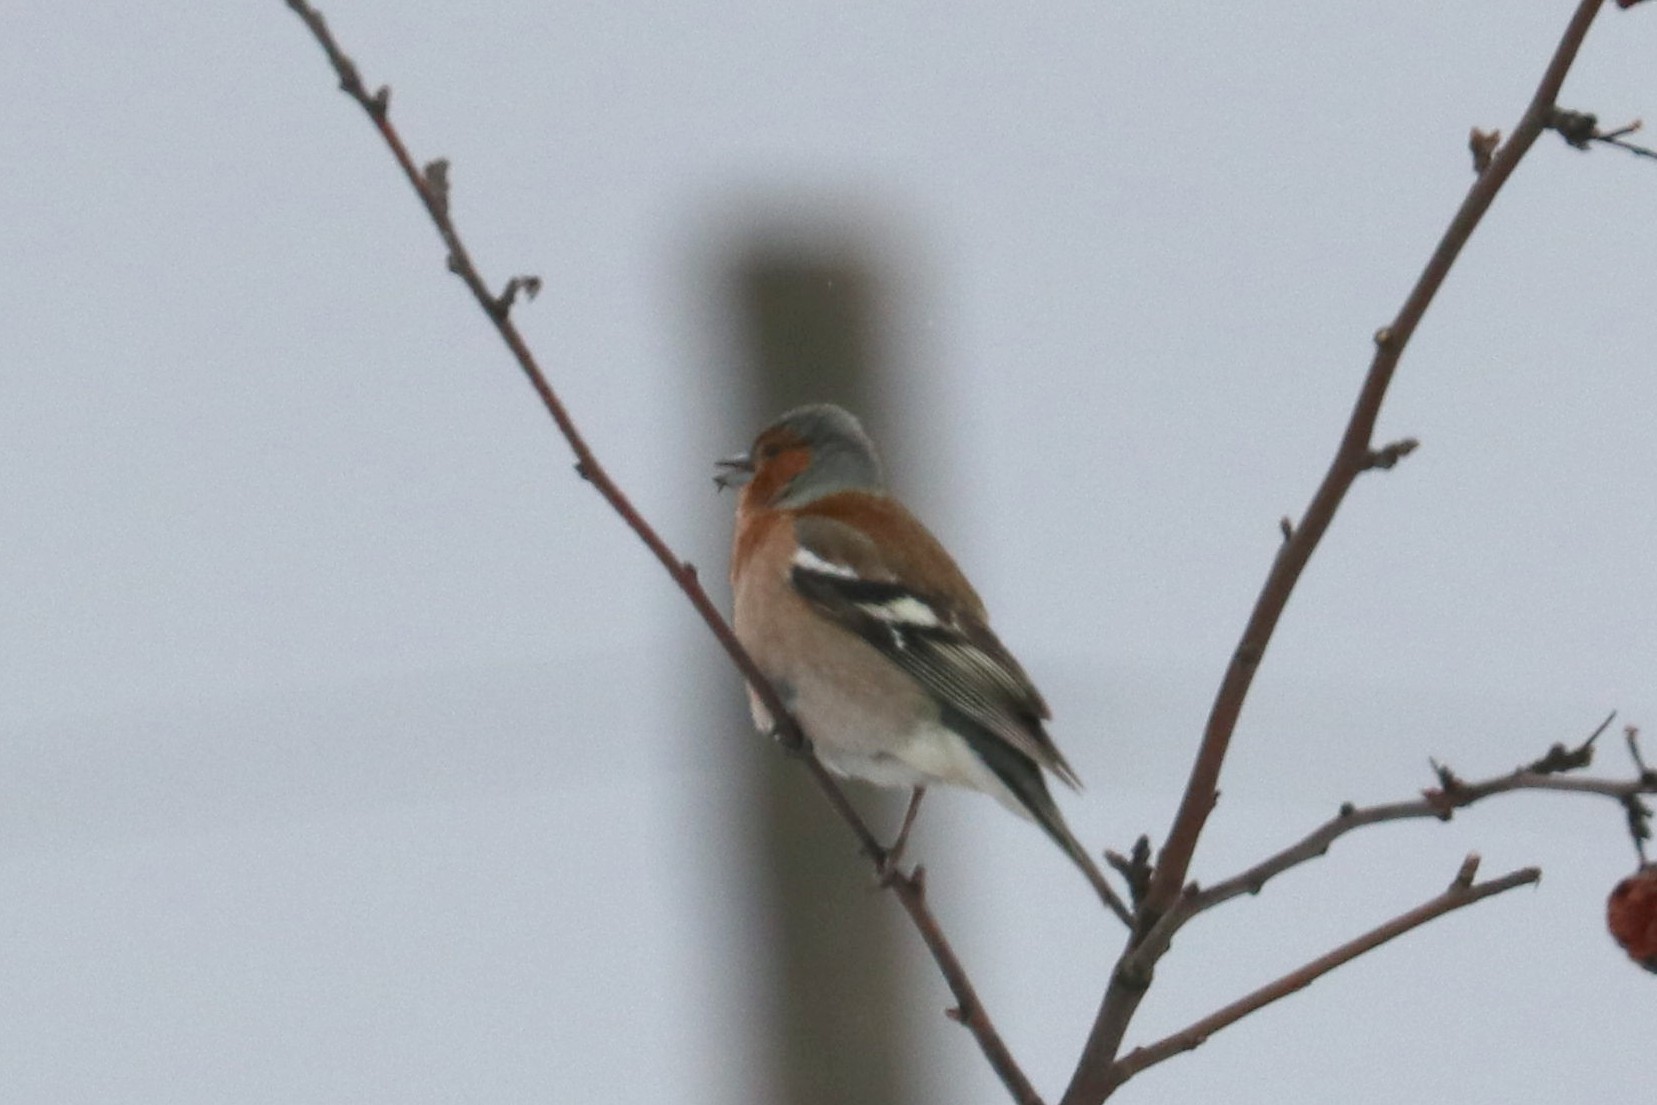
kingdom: Animalia
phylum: Chordata
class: Aves
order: Passeriformes
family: Fringillidae
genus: Fringilla
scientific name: Fringilla coelebs
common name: Common chaffinch
